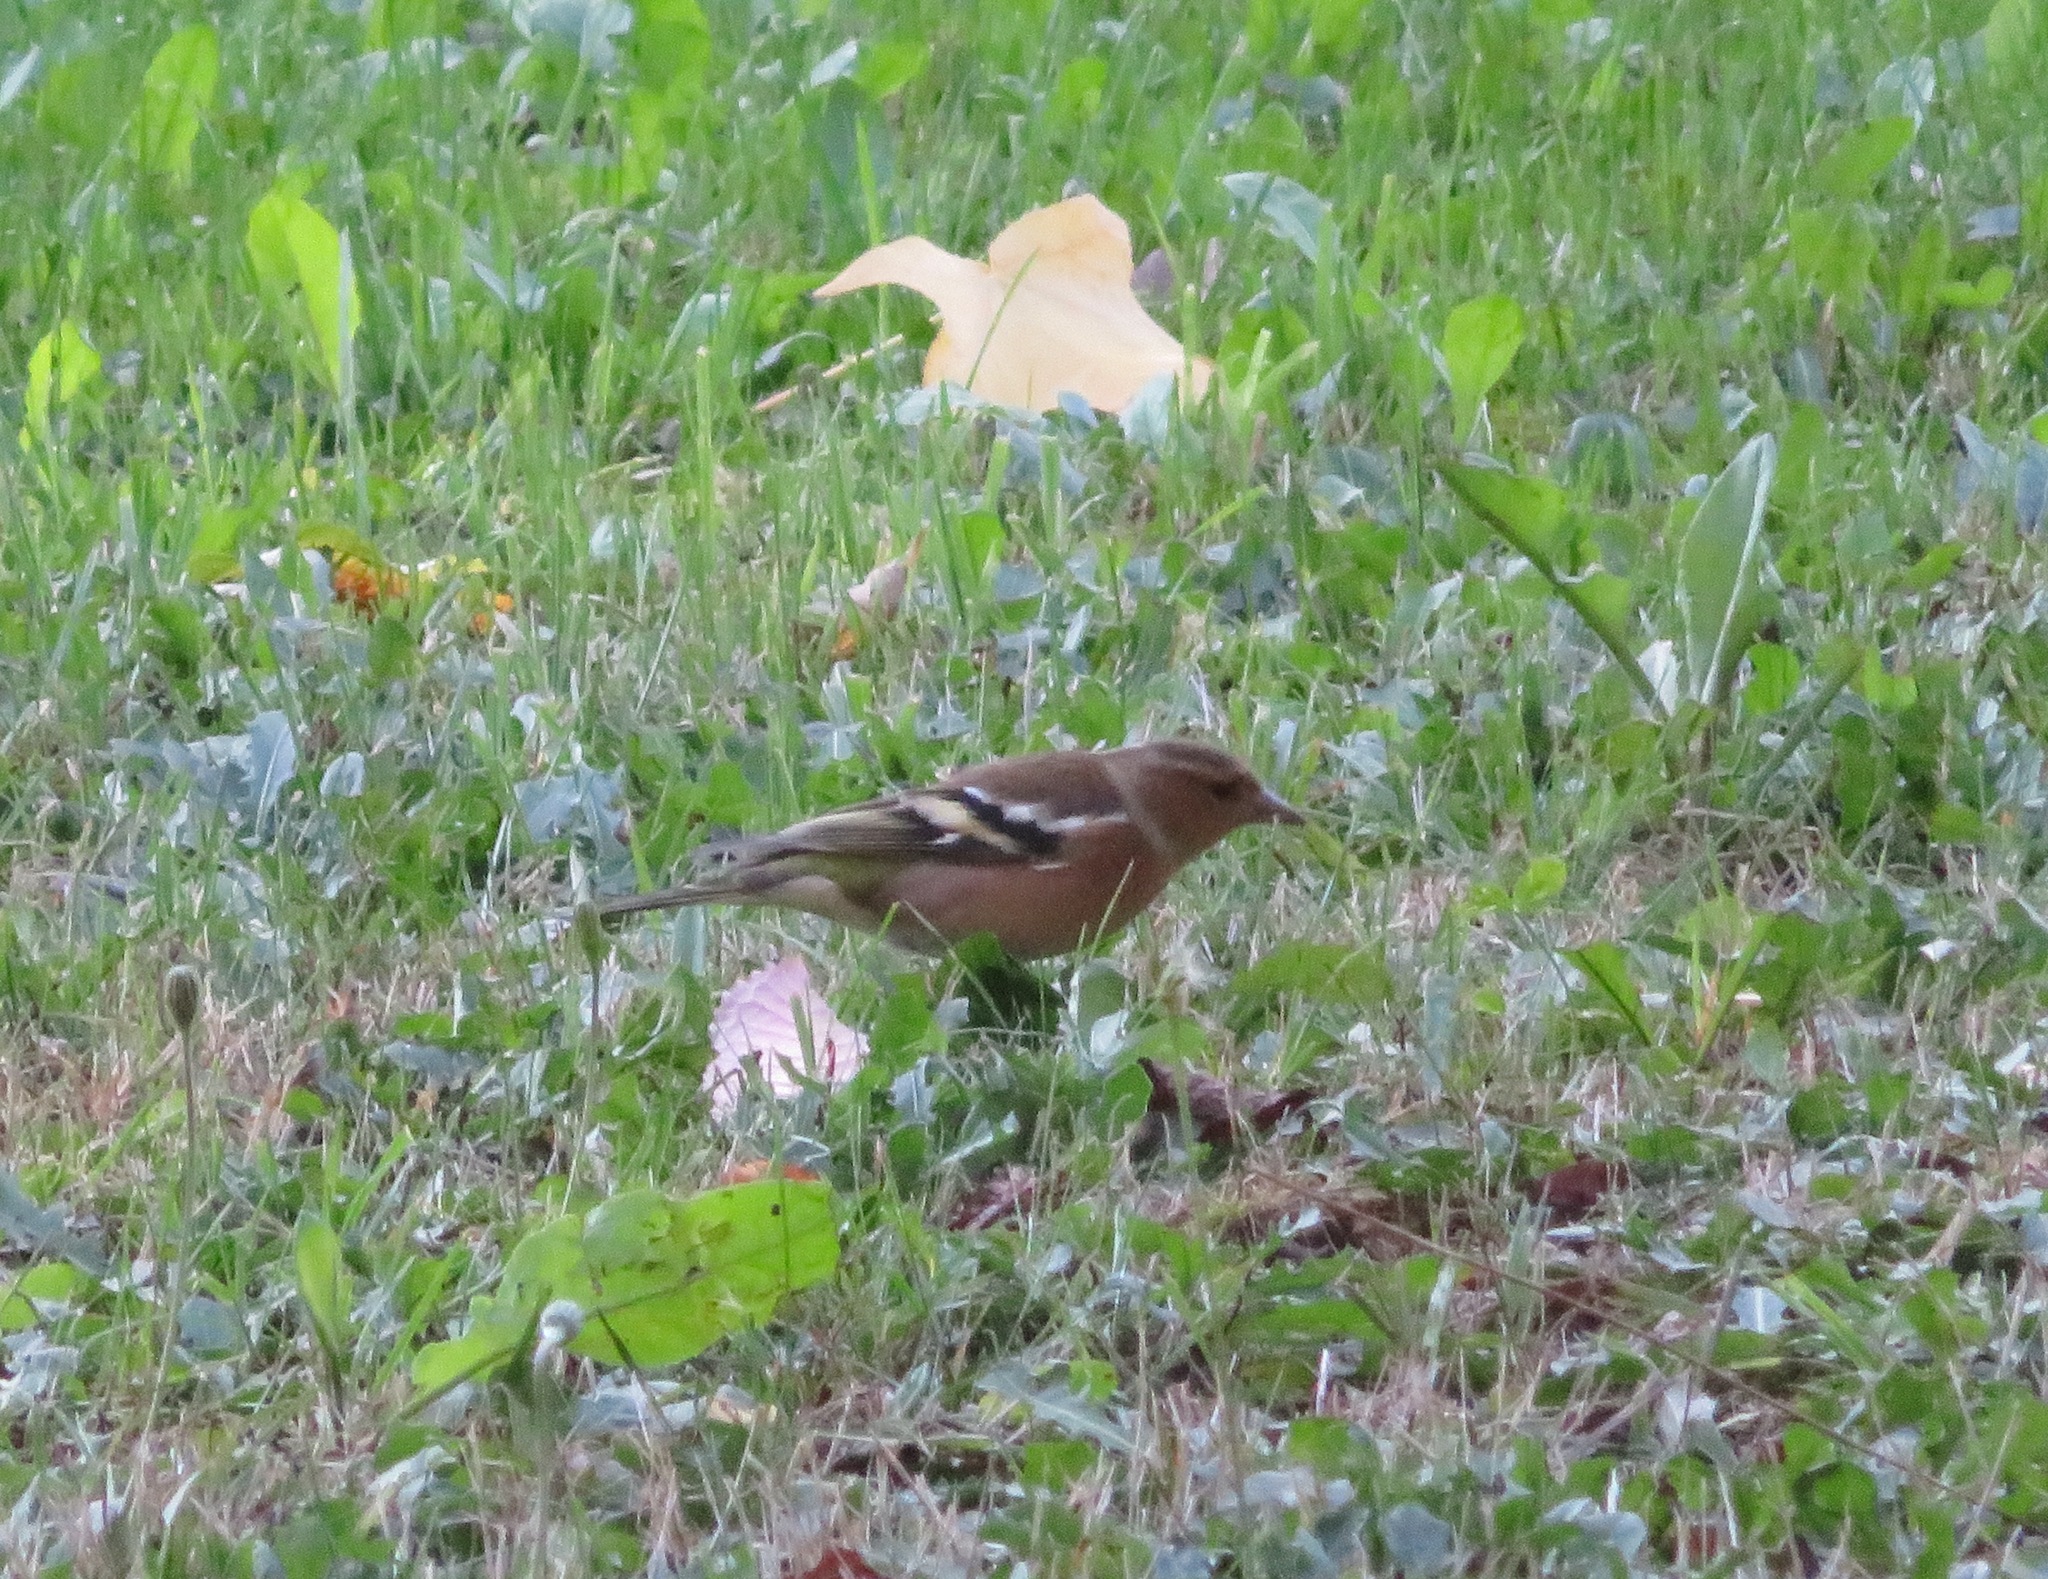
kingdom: Animalia
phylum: Chordata
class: Aves
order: Passeriformes
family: Fringillidae
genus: Fringilla
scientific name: Fringilla coelebs
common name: Common chaffinch
